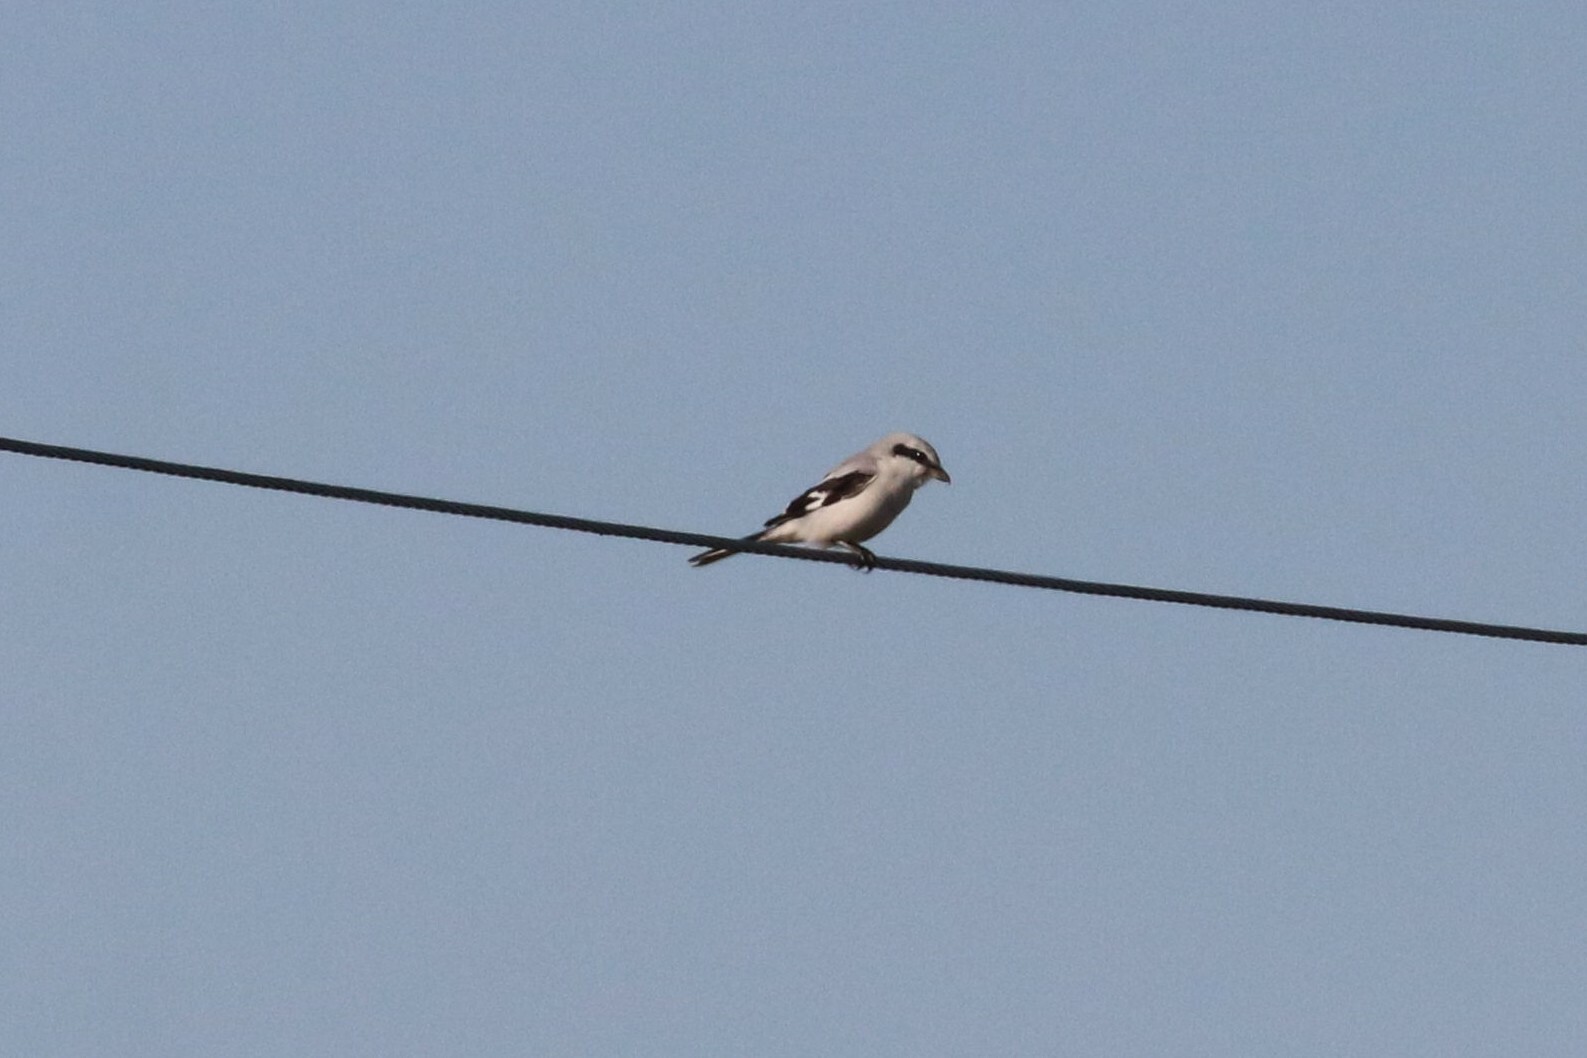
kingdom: Animalia
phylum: Chordata
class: Aves
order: Passeriformes
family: Laniidae
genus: Lanius
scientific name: Lanius excubitor
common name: Great grey shrike
